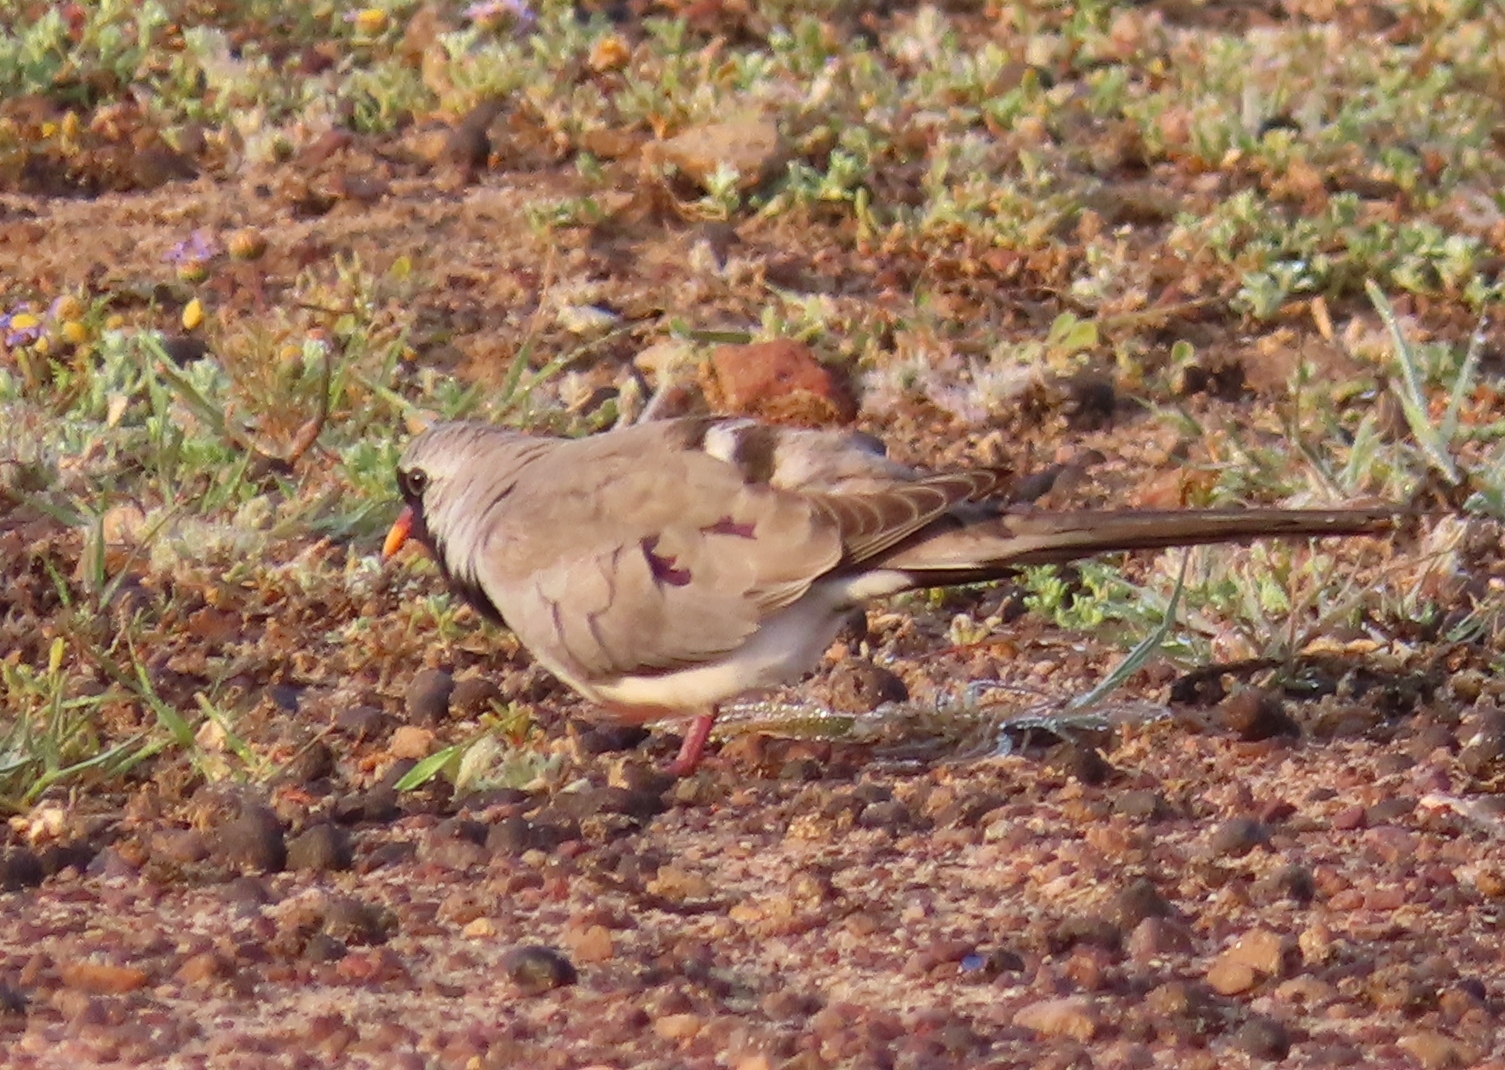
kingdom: Animalia
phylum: Chordata
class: Aves
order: Columbiformes
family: Columbidae
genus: Oena
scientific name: Oena capensis
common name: Namaqua dove
